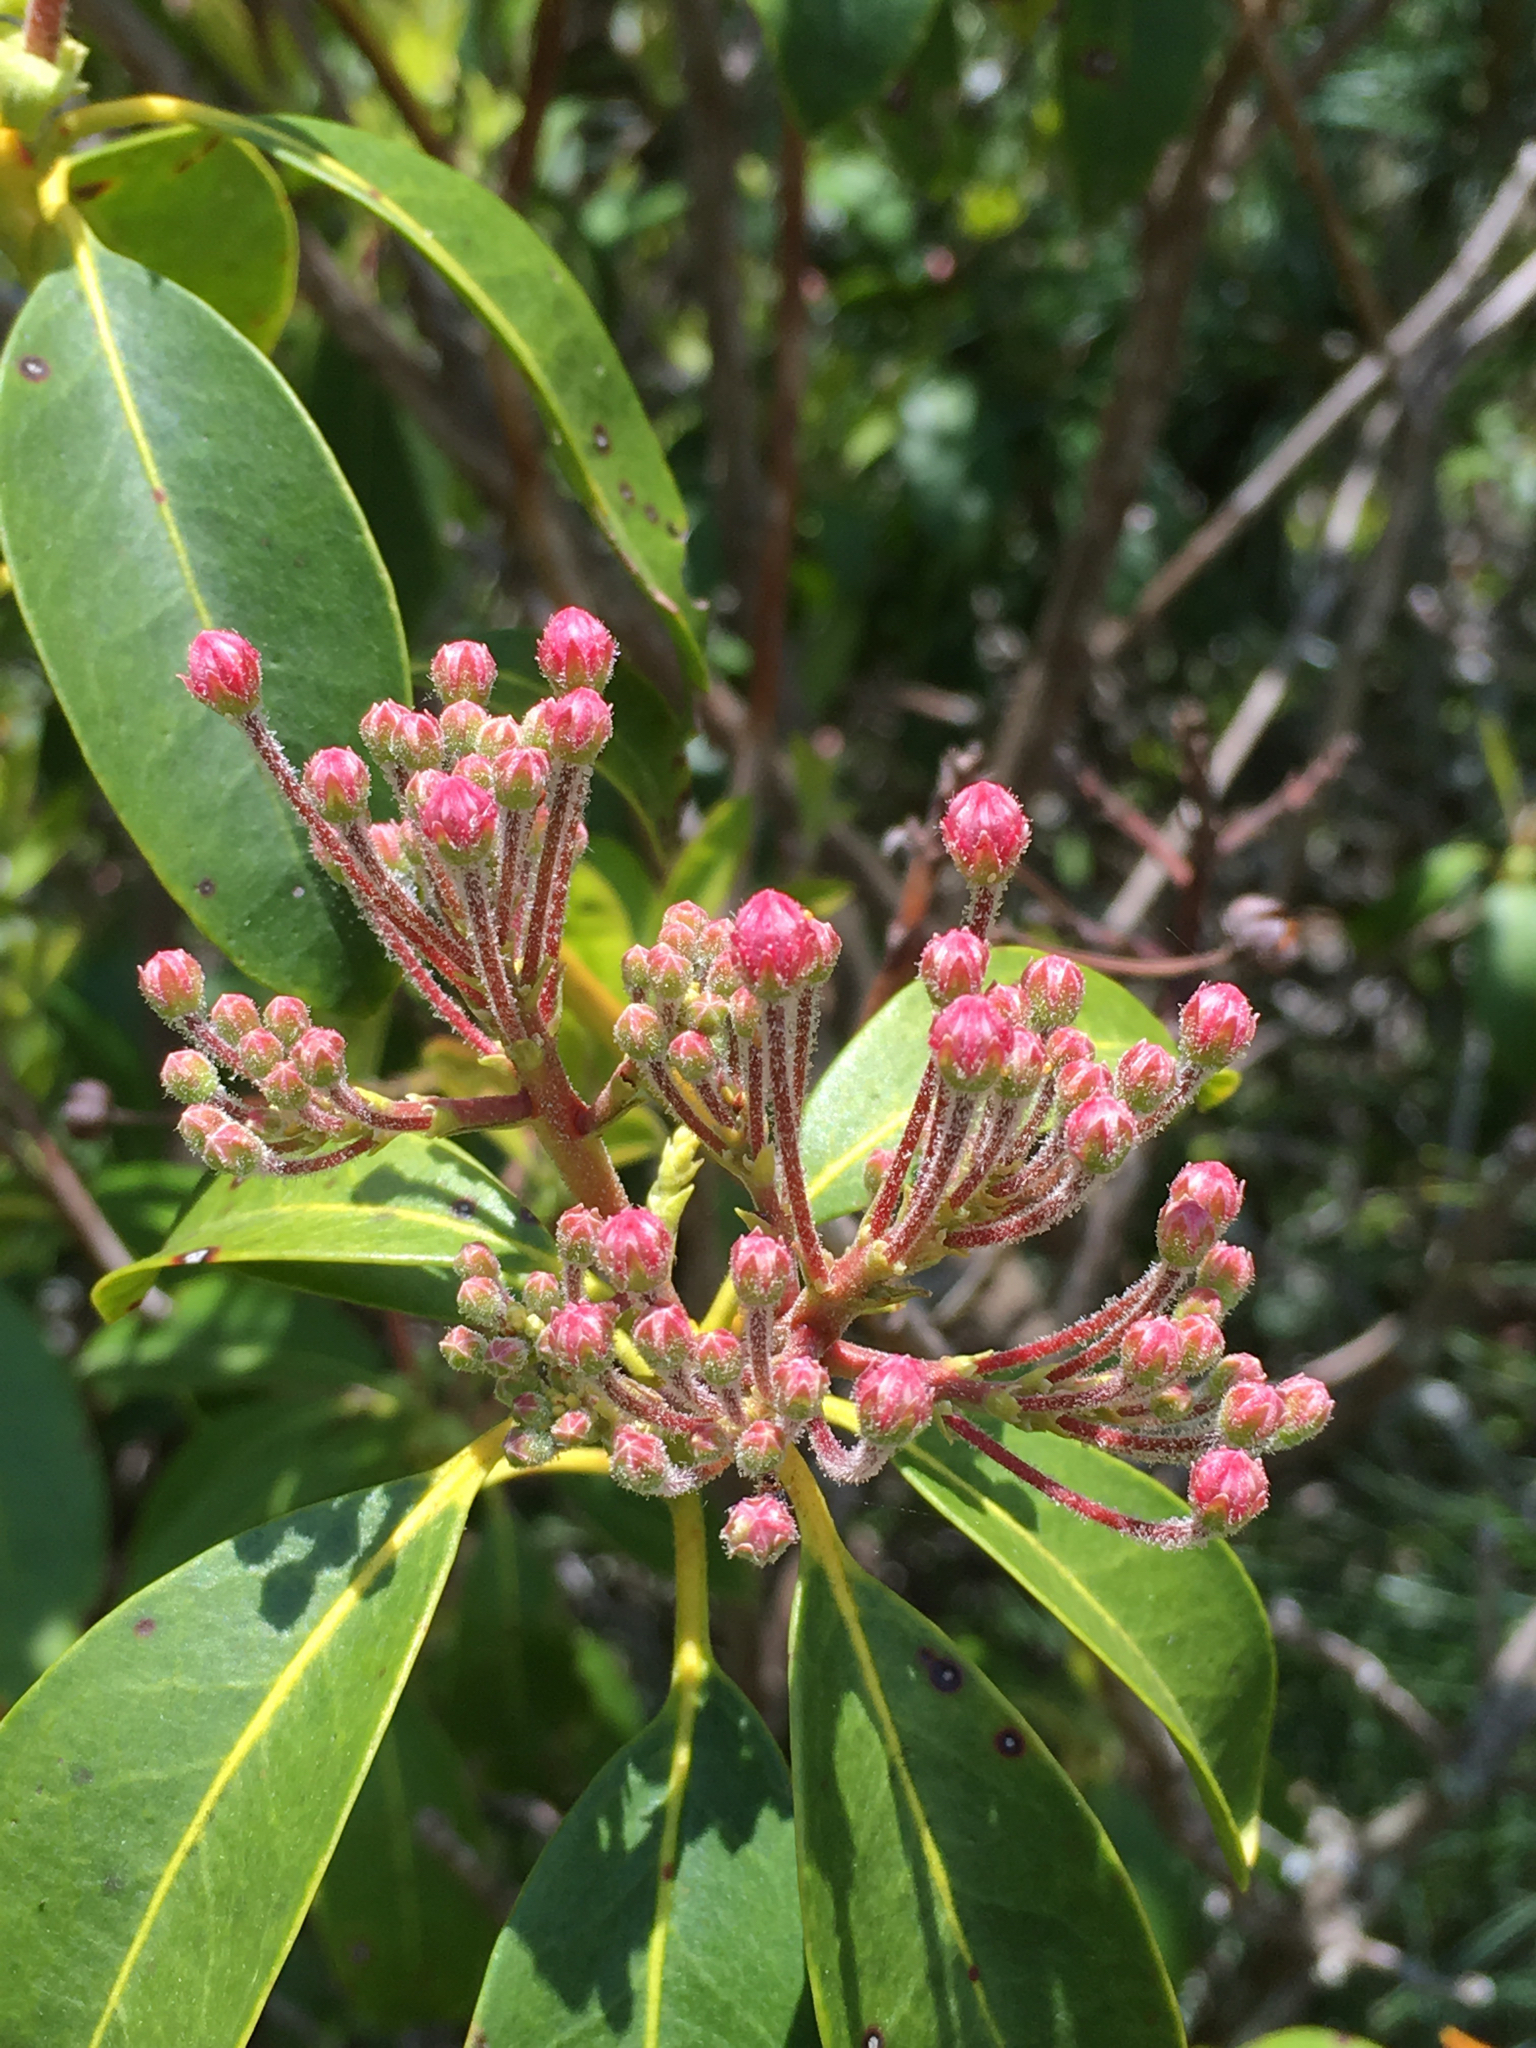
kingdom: Plantae
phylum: Tracheophyta
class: Magnoliopsida
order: Ericales
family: Ericaceae
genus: Kalmia
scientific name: Kalmia latifolia
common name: Mountain-laurel
